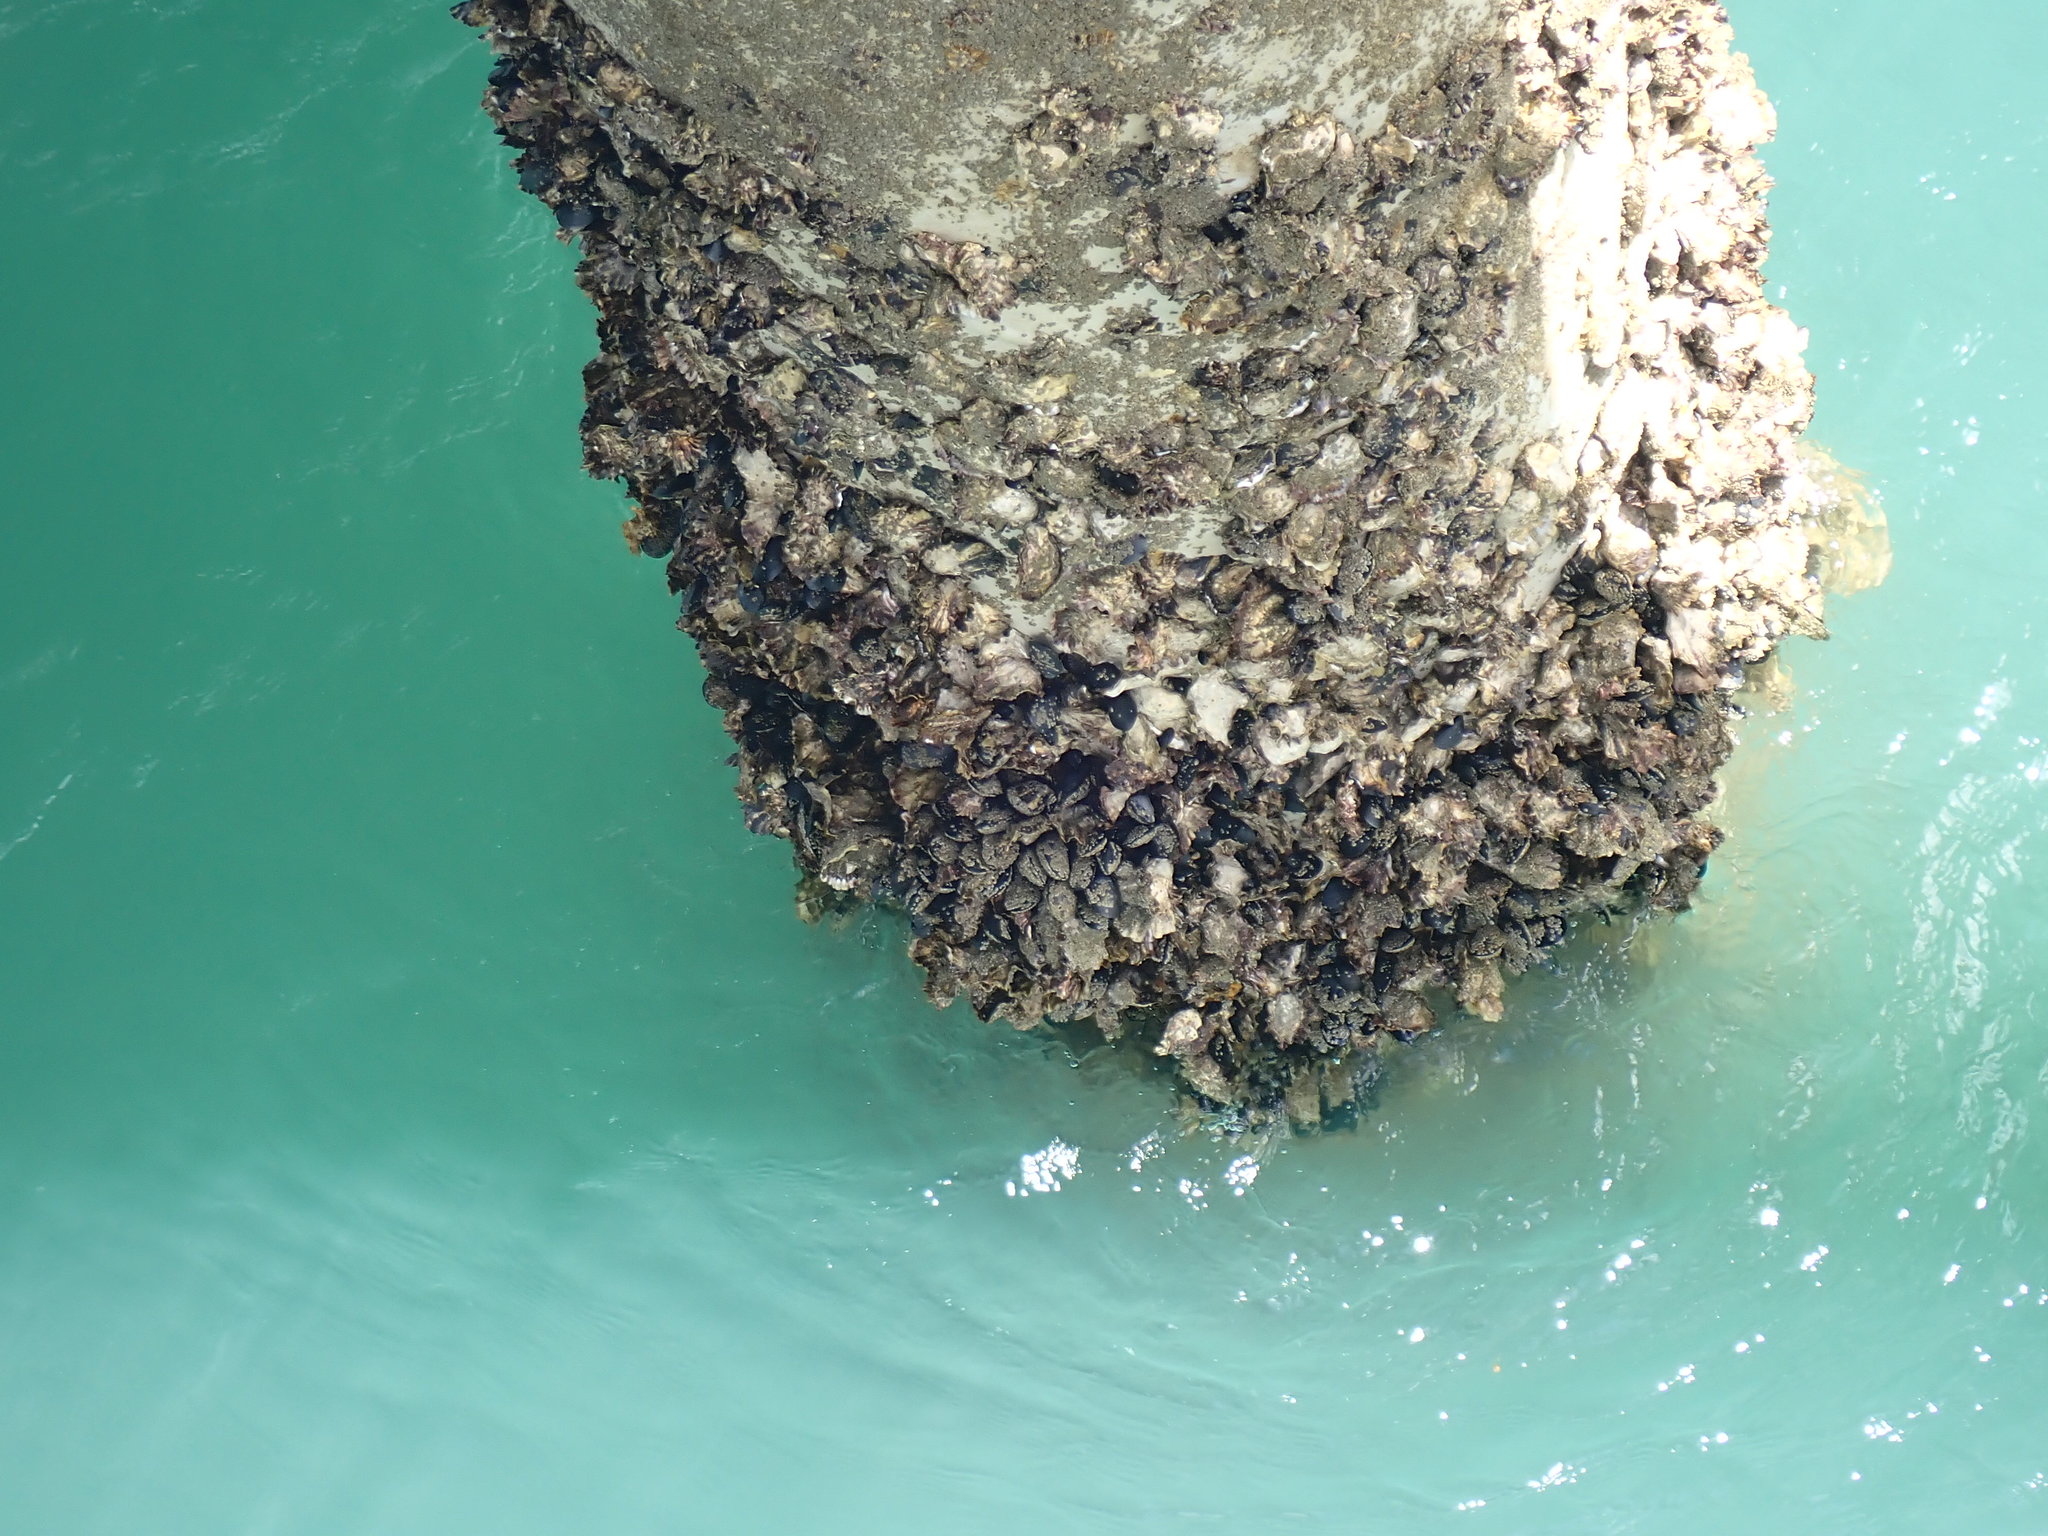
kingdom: Animalia
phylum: Mollusca
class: Bivalvia
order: Ostreida
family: Ostreidae
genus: Saccostrea
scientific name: Saccostrea glomerata
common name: Sydney cupped oyster
